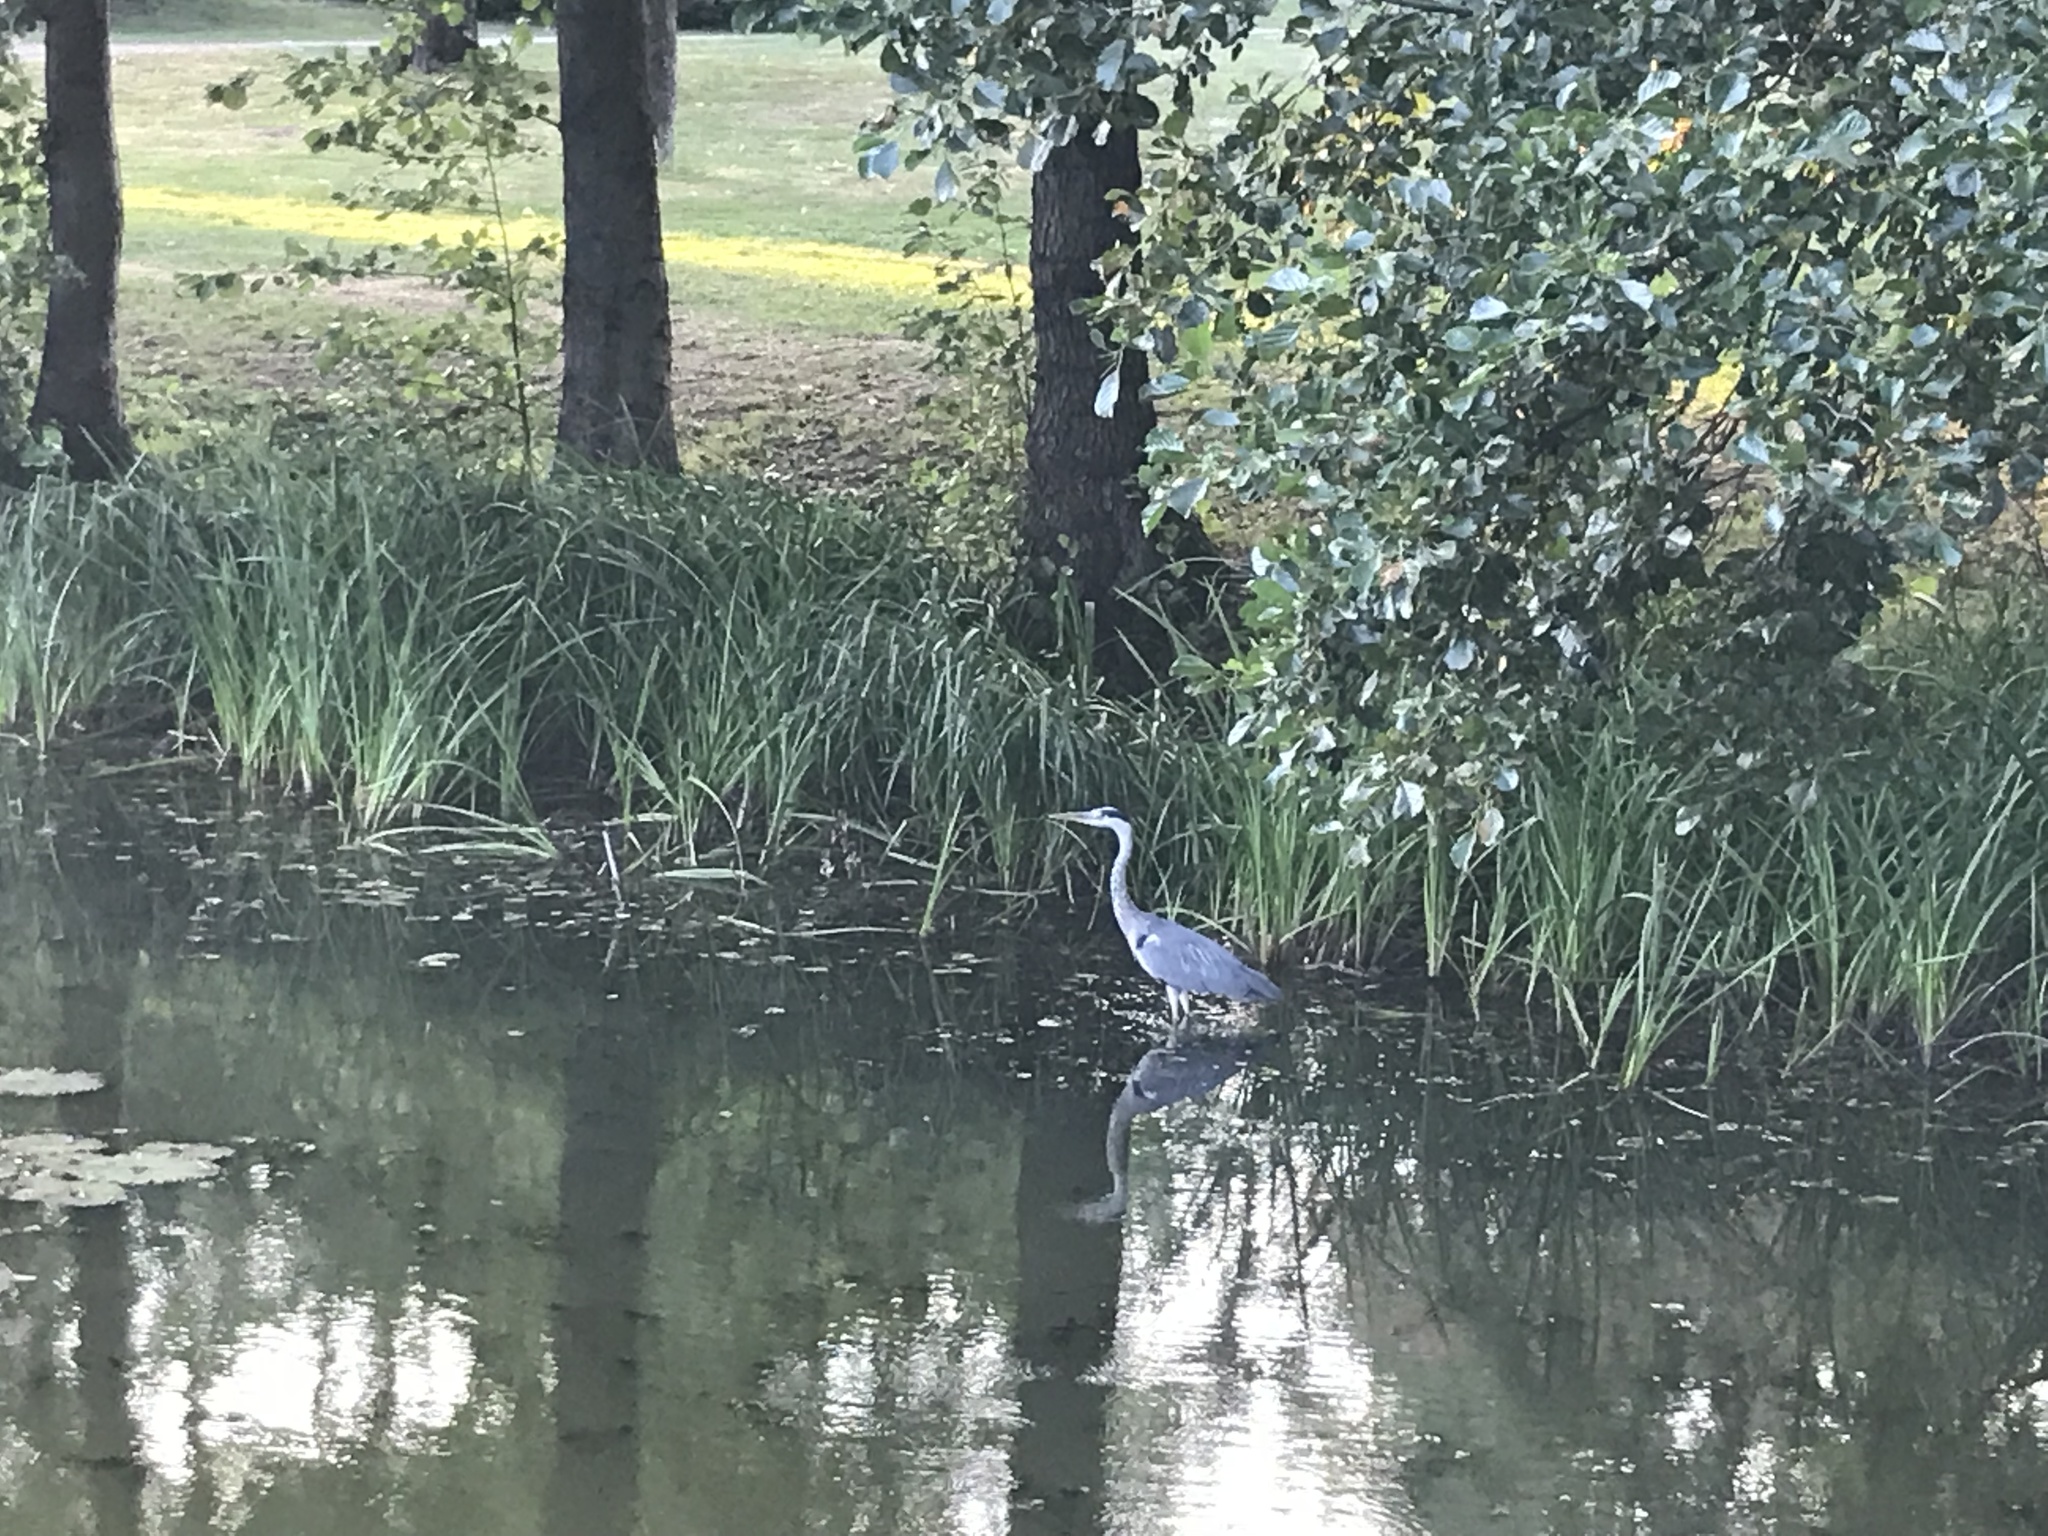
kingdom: Animalia
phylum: Chordata
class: Aves
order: Pelecaniformes
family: Ardeidae
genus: Ardea
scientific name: Ardea cinerea
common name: Grey heron
